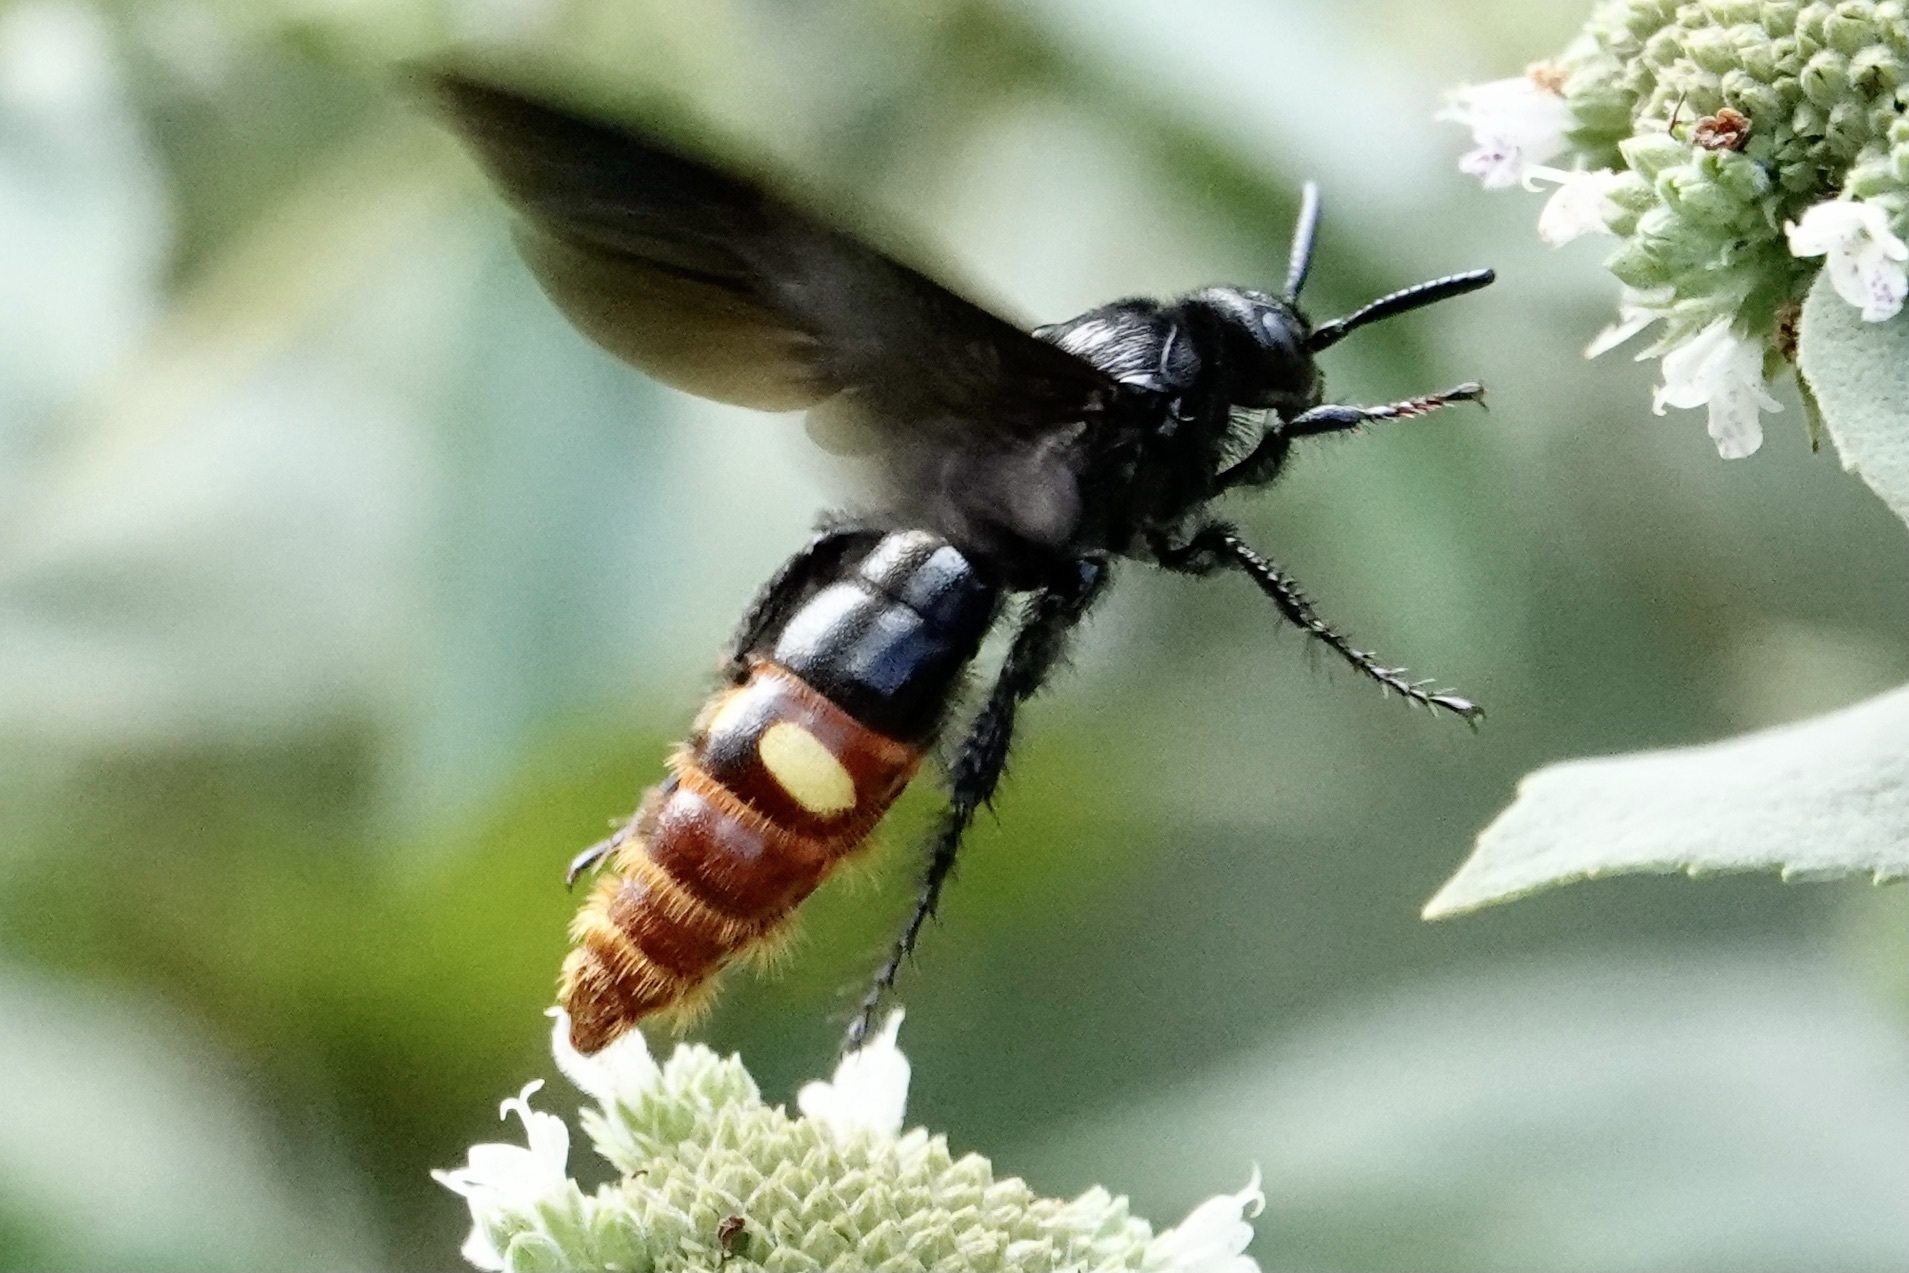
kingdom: Animalia
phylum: Arthropoda
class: Insecta
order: Hymenoptera
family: Scoliidae
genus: Scolia
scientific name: Scolia dubia
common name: Blue-winged scoliid wasp
